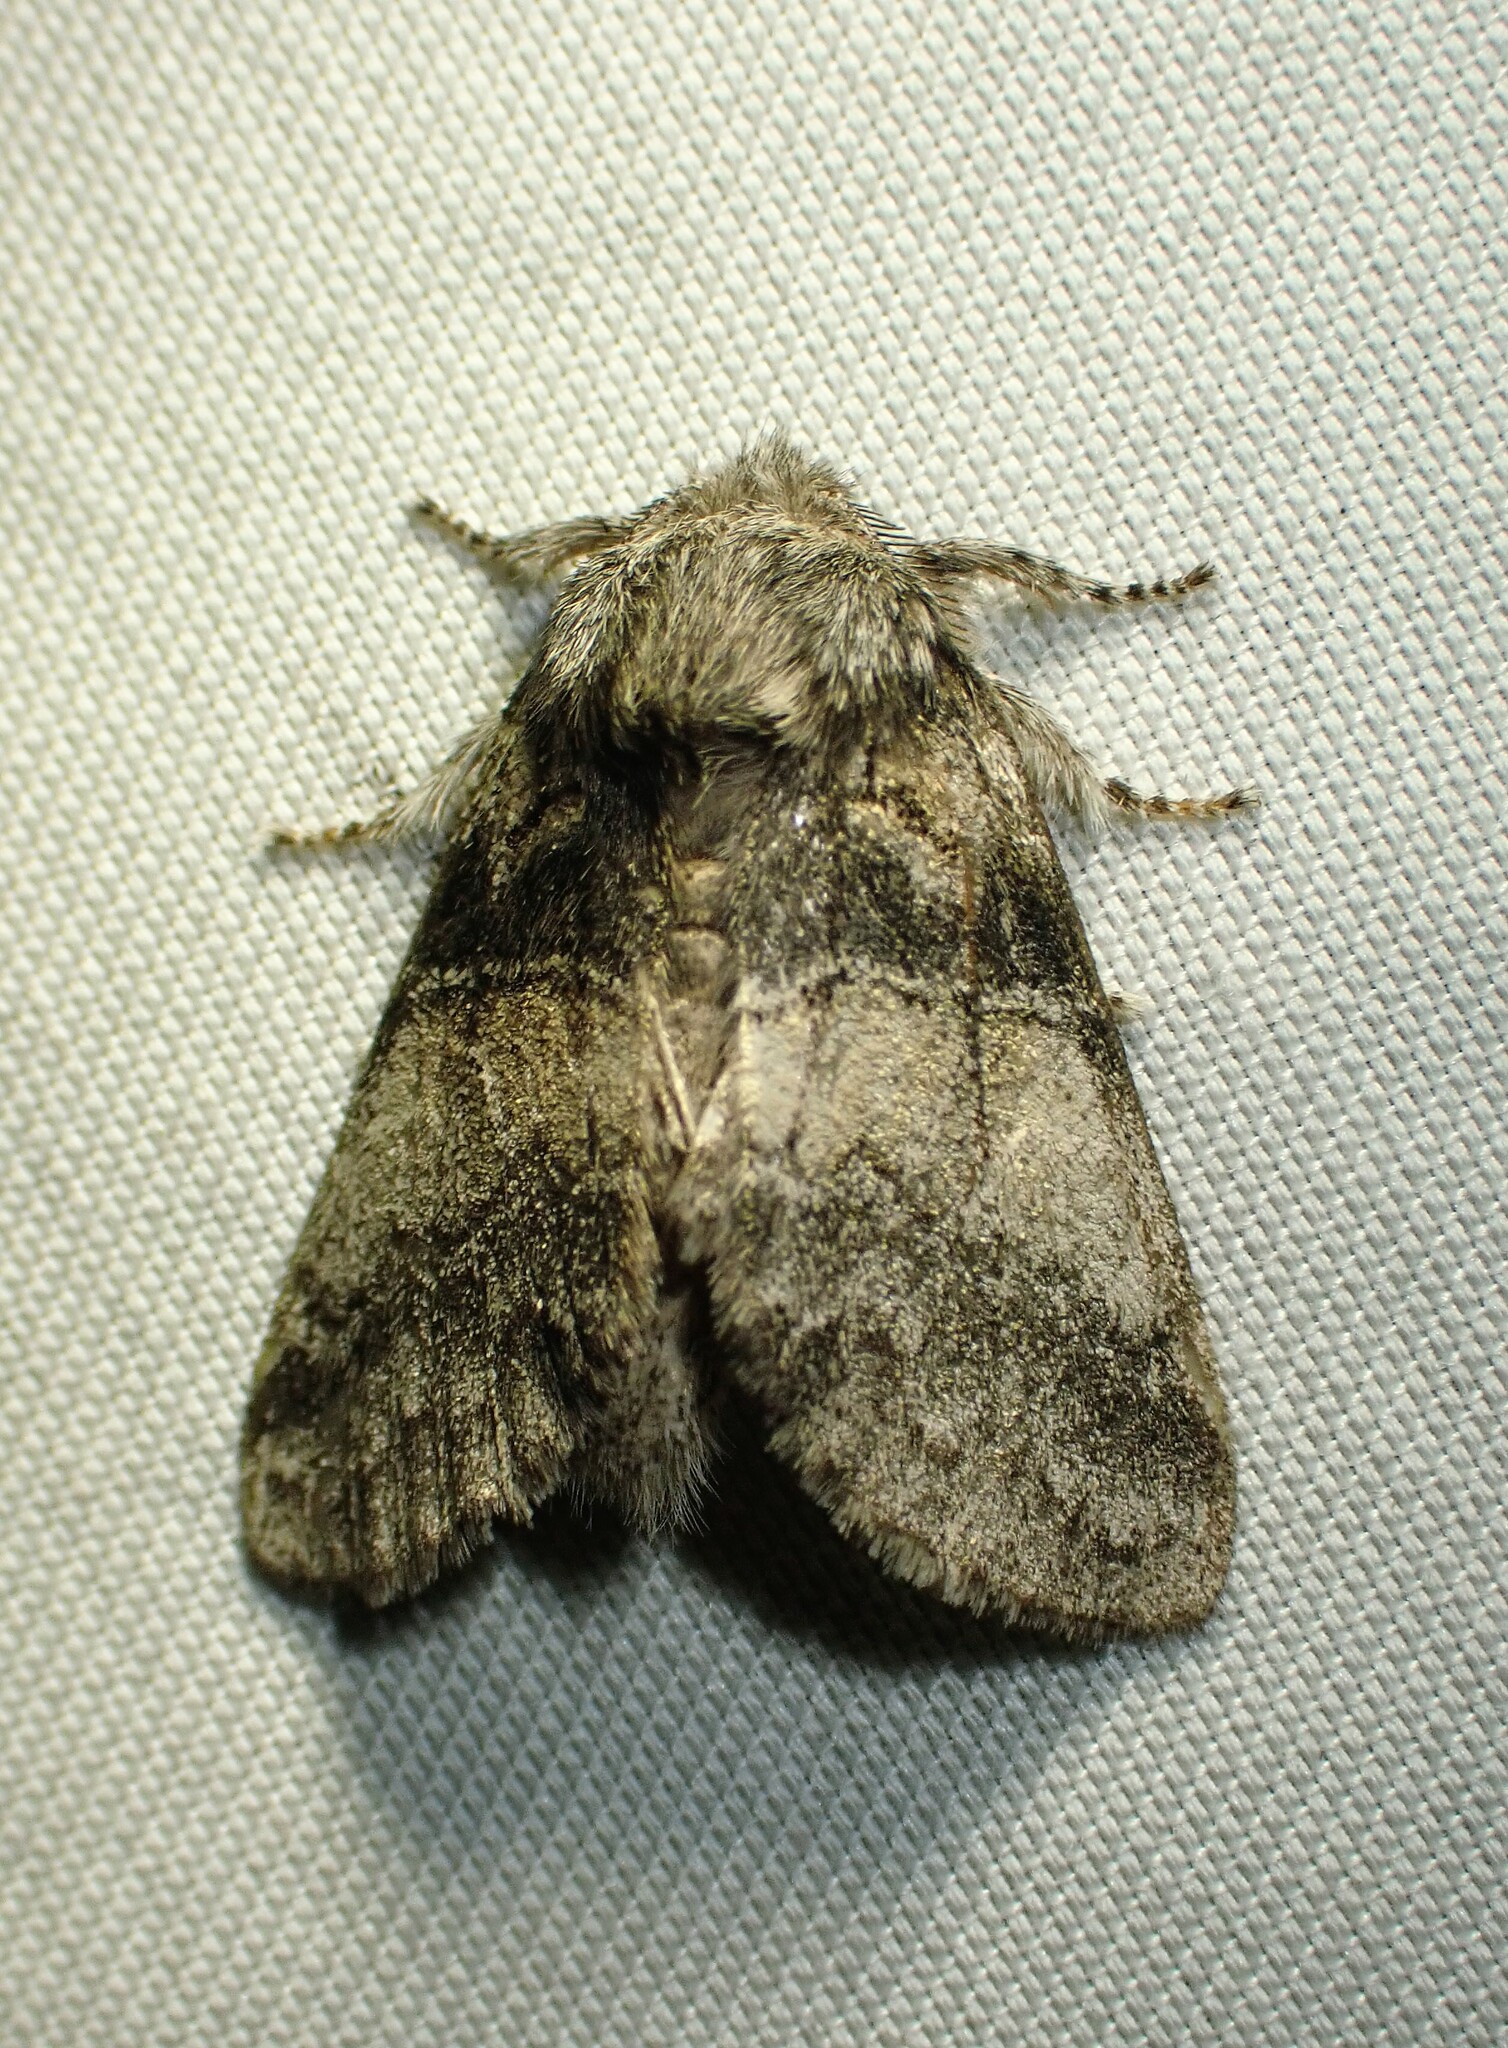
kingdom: Animalia
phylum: Arthropoda
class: Insecta
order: Lepidoptera
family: Notodontidae
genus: Gluphisia
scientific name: Gluphisia septentrionis
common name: Common gluphisia
